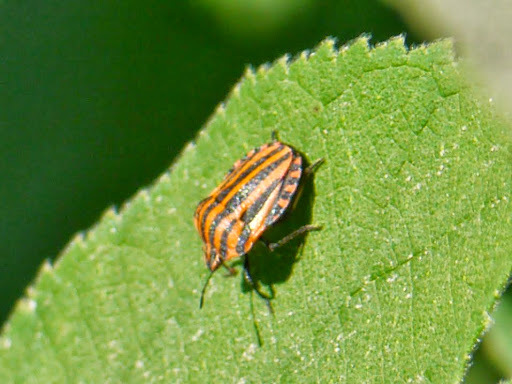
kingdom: Animalia
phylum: Arthropoda
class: Insecta
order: Hemiptera
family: Pentatomidae
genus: Graphosoma
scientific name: Graphosoma italicum
